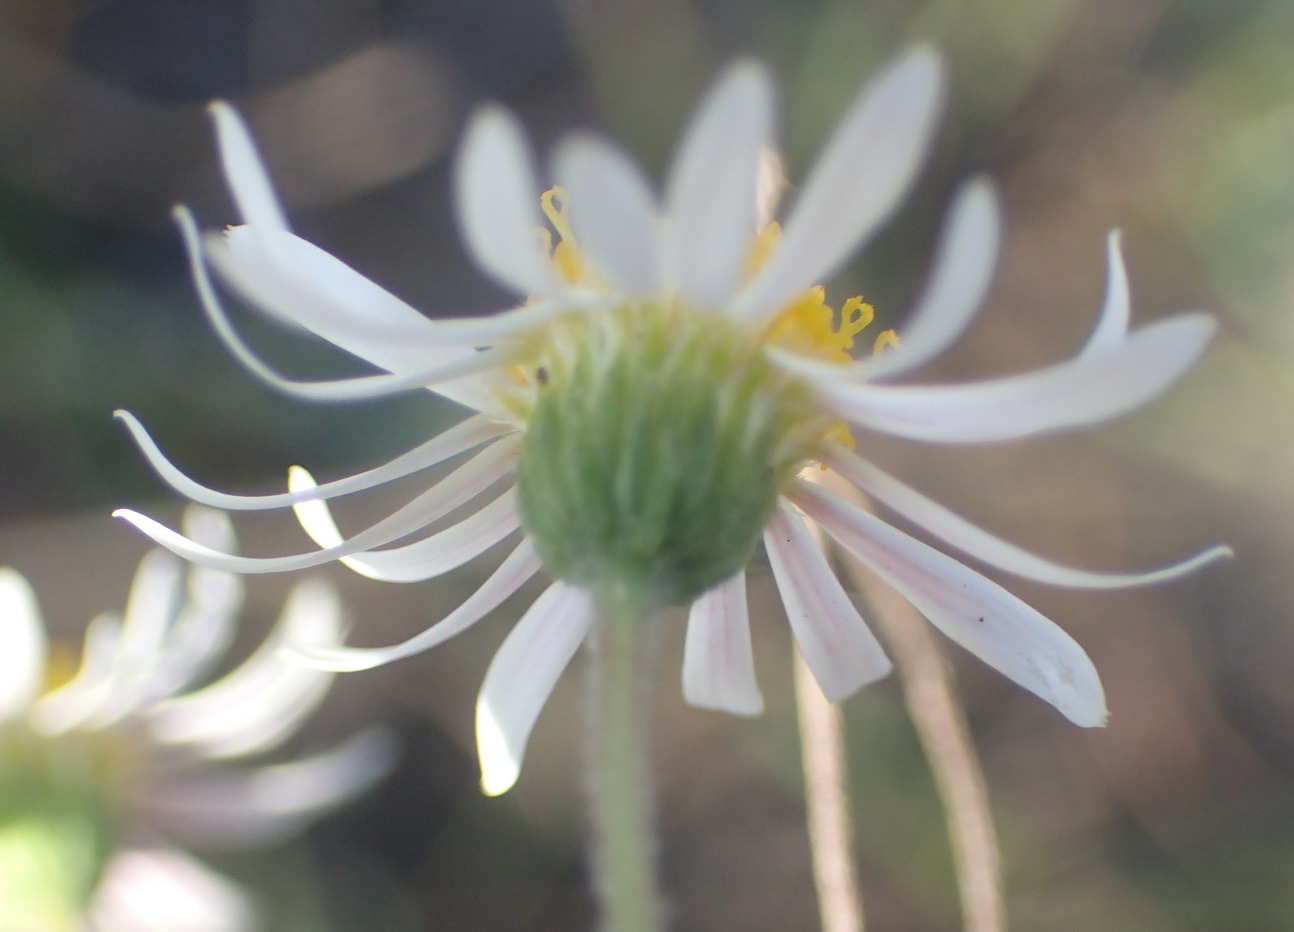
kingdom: Plantae
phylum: Tracheophyta
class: Magnoliopsida
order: Asterales
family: Asteraceae
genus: Felicia
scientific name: Felicia muricata
